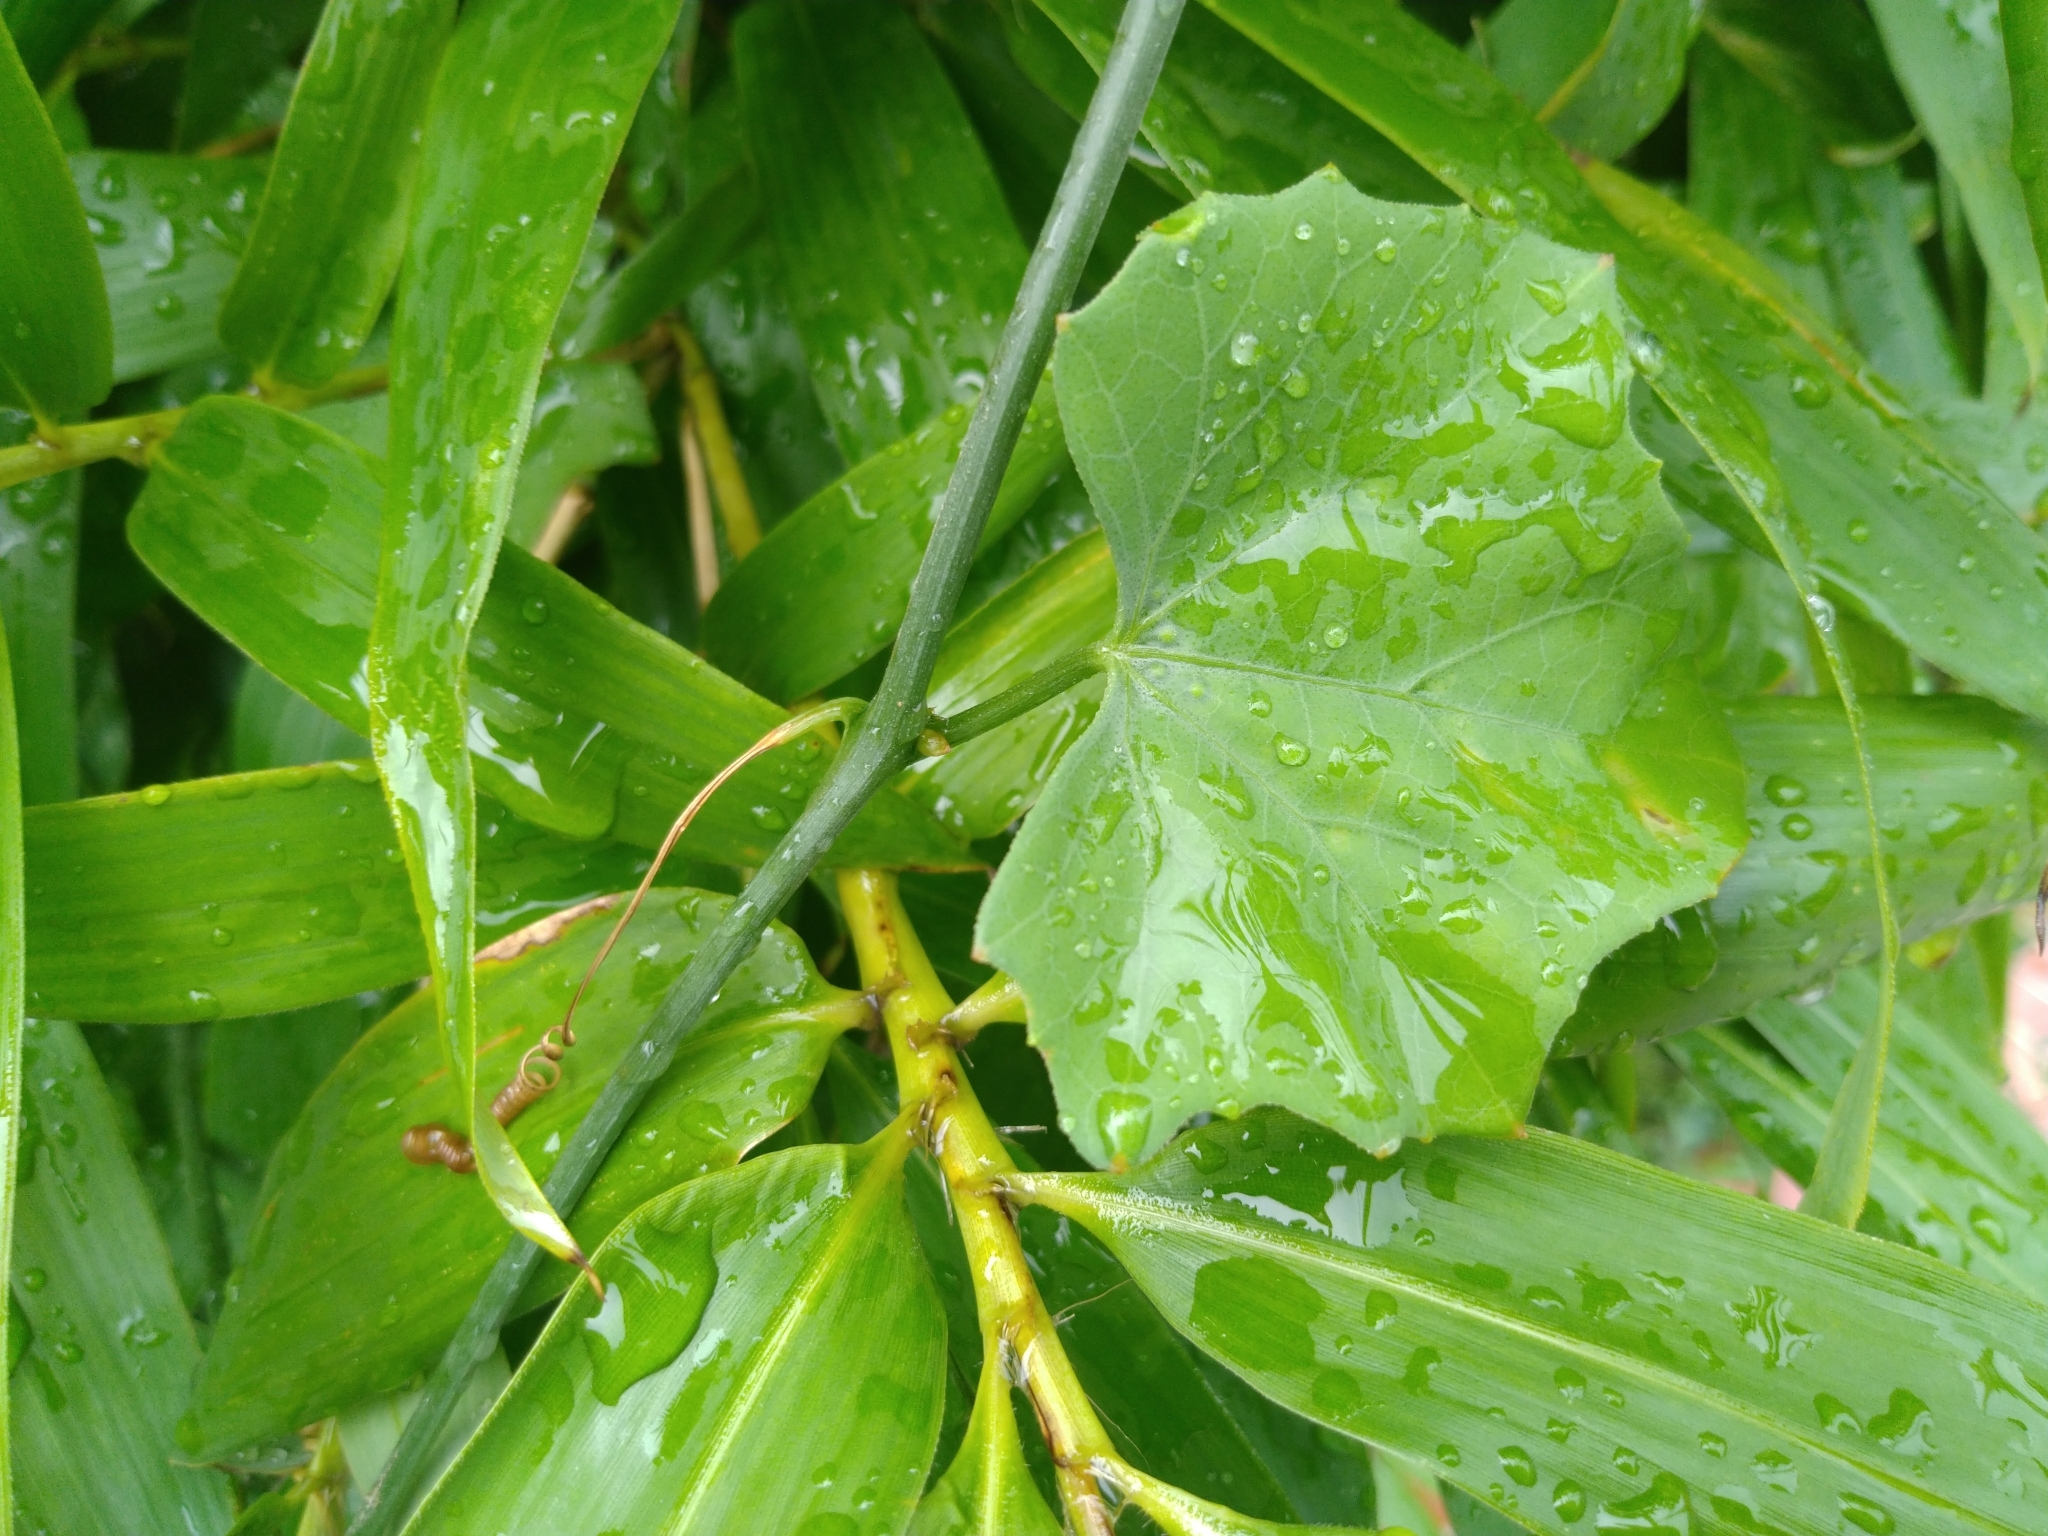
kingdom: Plantae
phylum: Tracheophyta
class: Magnoliopsida
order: Cucurbitales
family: Cucurbitaceae
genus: Melothria
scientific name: Melothria pendula
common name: Creeping-cucumber
